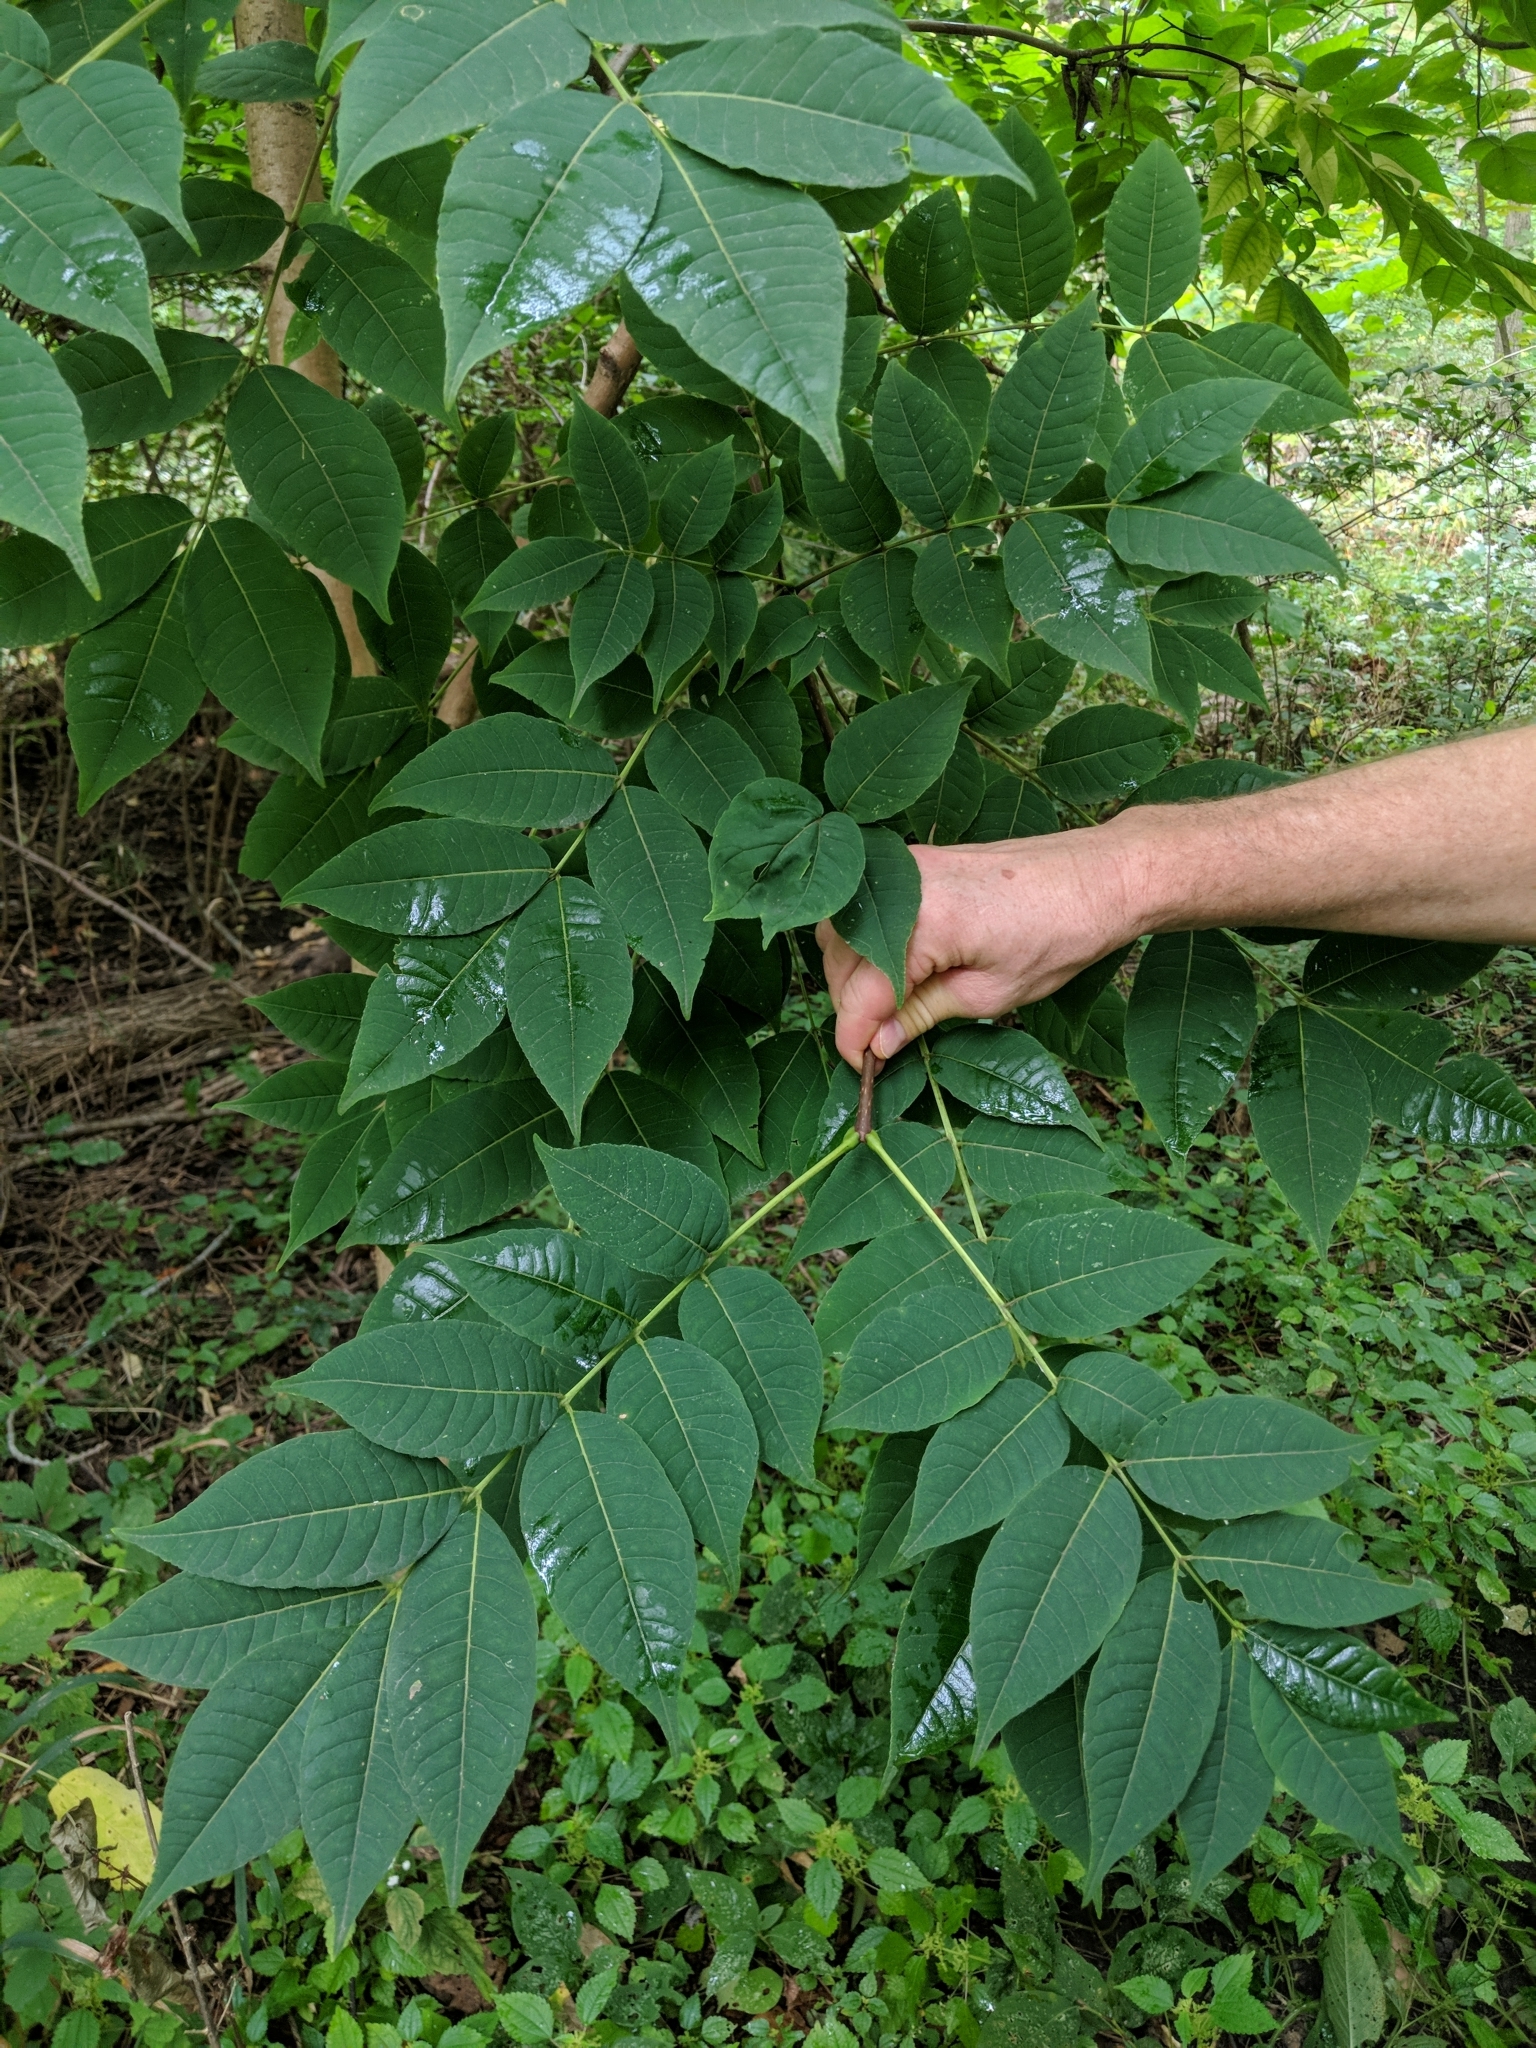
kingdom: Plantae
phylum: Tracheophyta
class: Magnoliopsida
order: Sapindales
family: Rutaceae
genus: Phellodendron
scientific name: Phellodendron amurense
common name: Amur corktree
